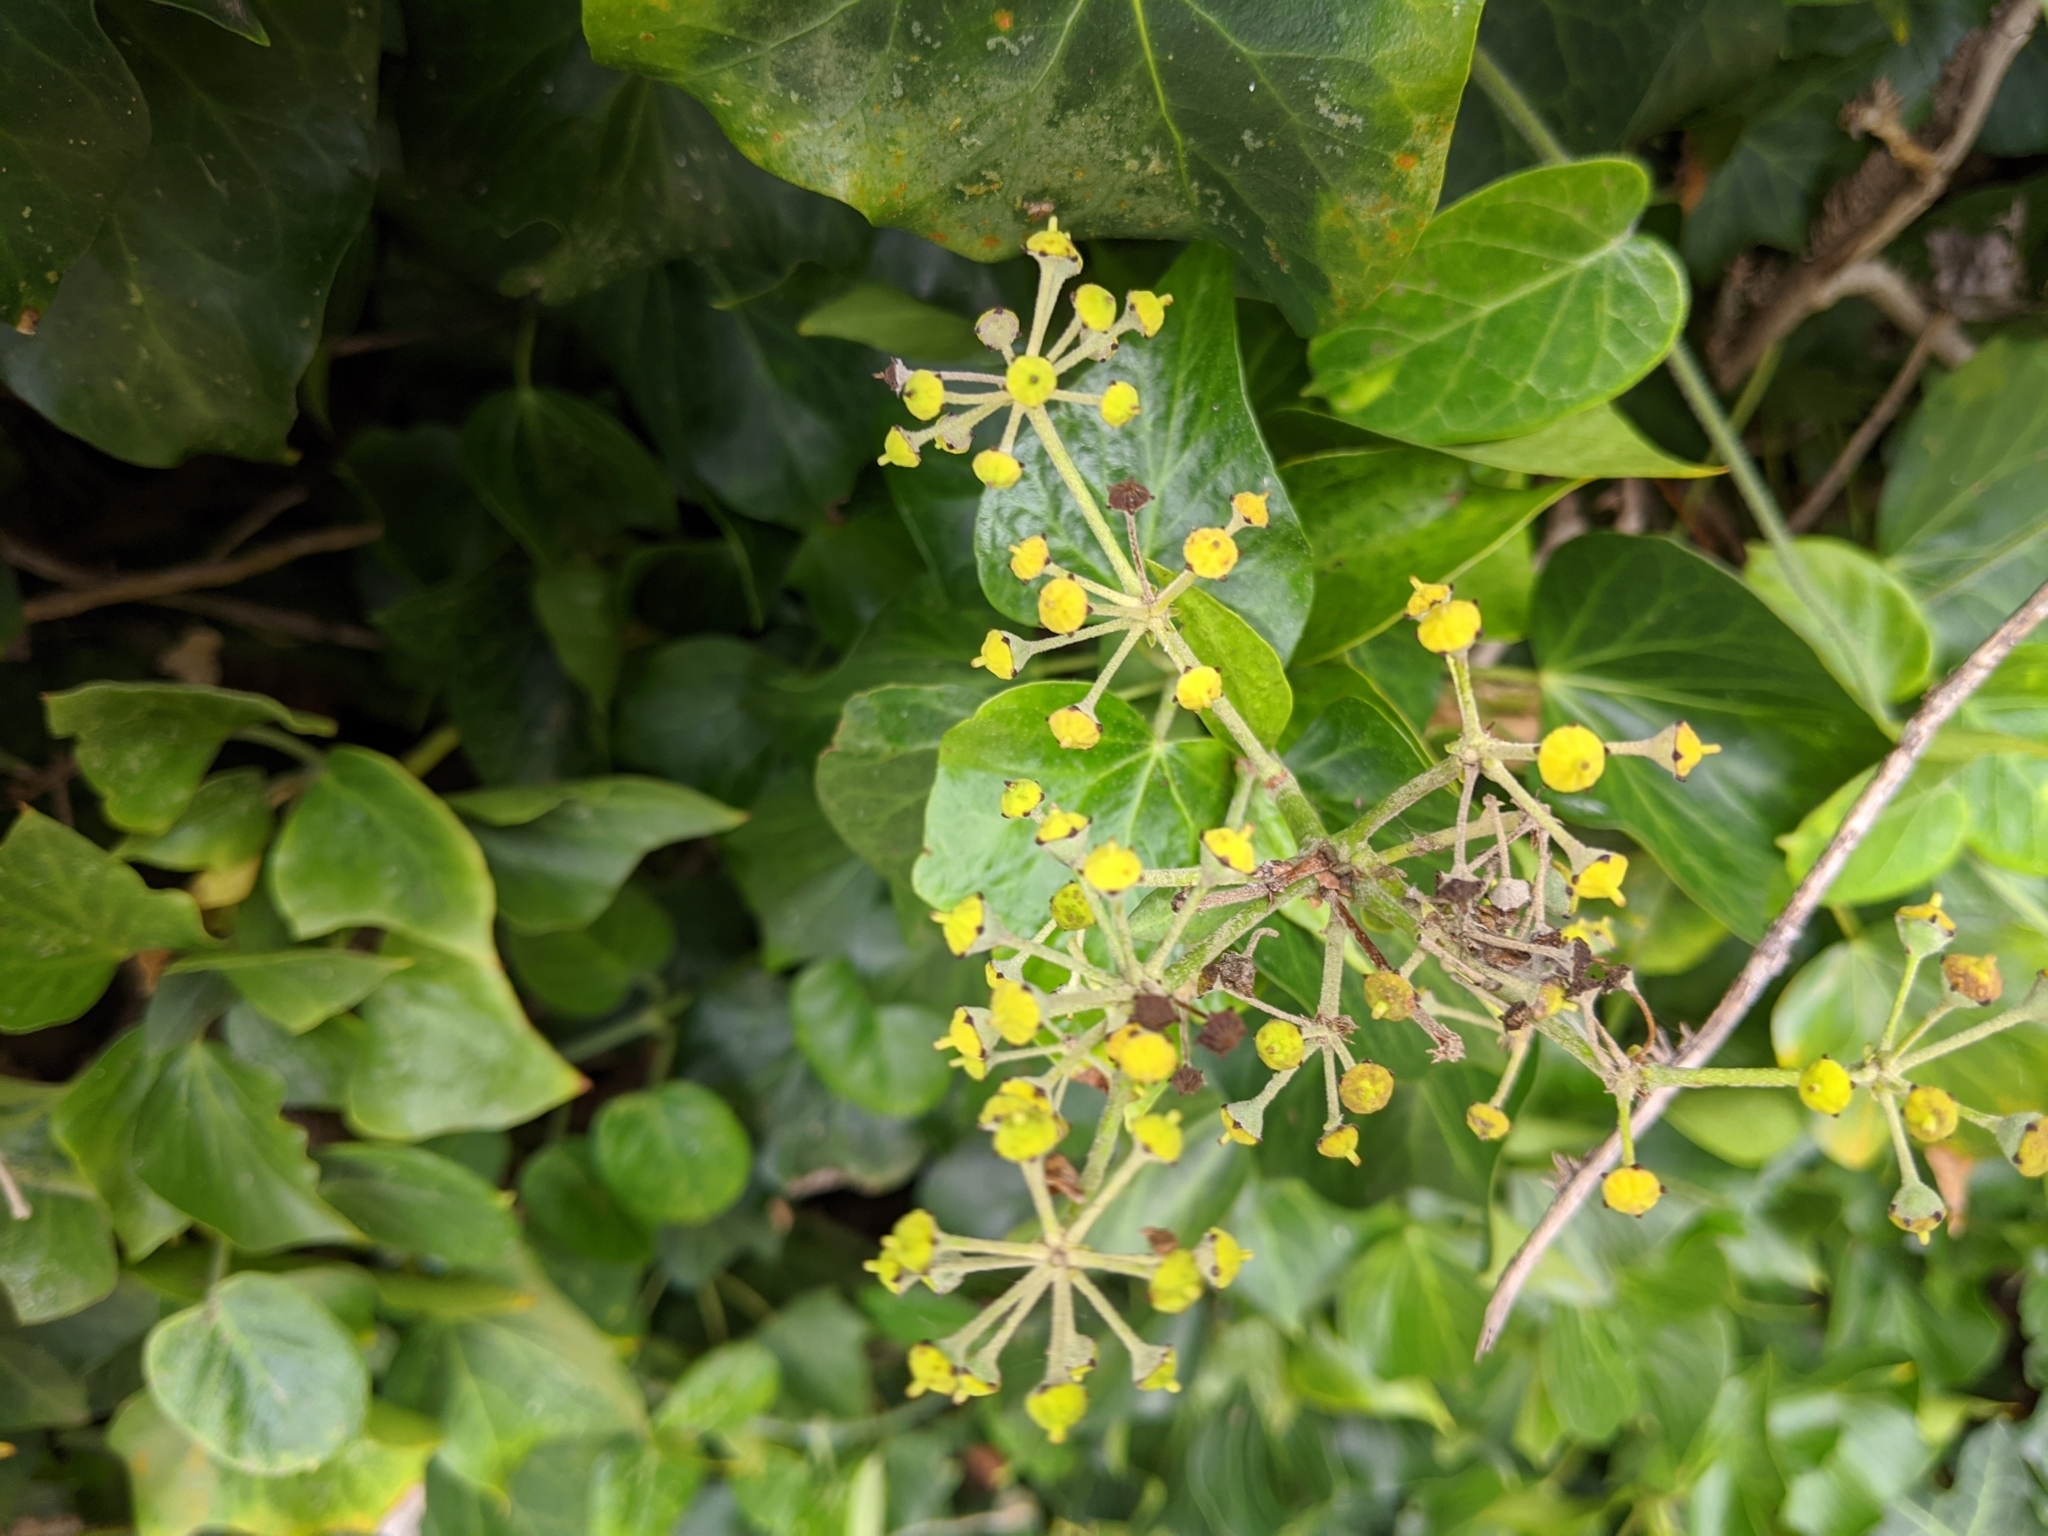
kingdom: Plantae
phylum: Tracheophyta
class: Magnoliopsida
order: Apiales
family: Araliaceae
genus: Hedera
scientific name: Hedera canariensis
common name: Madeira ivy
